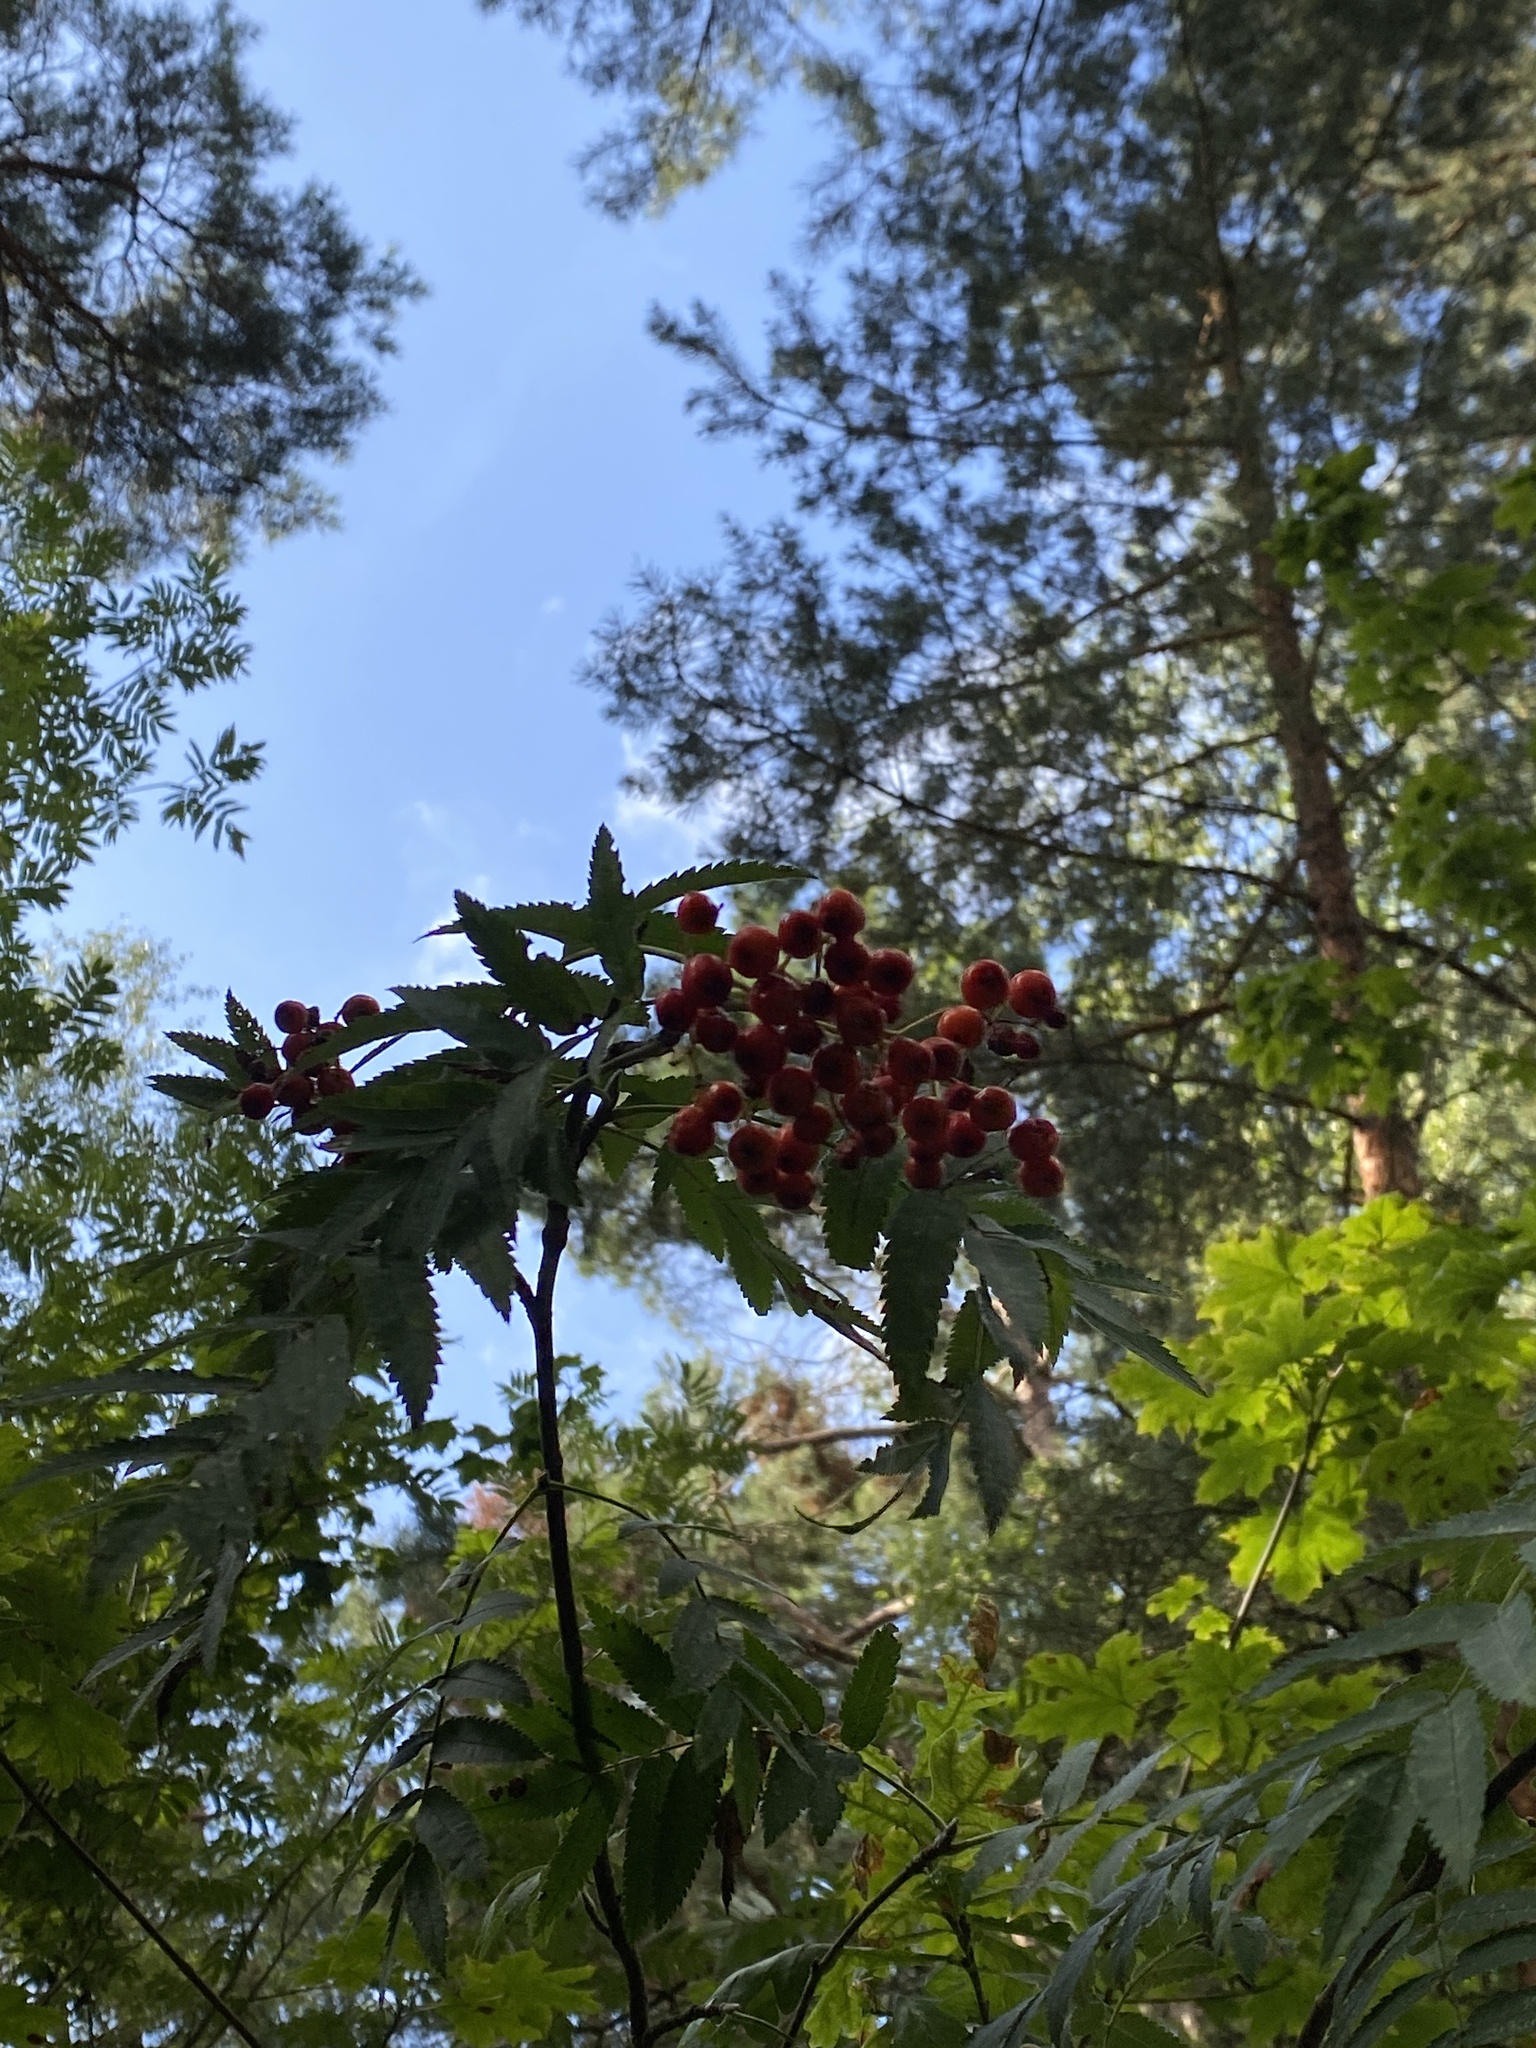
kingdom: Plantae
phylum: Tracheophyta
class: Magnoliopsida
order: Rosales
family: Rosaceae
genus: Sorbus
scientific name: Sorbus aucuparia
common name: Rowan
